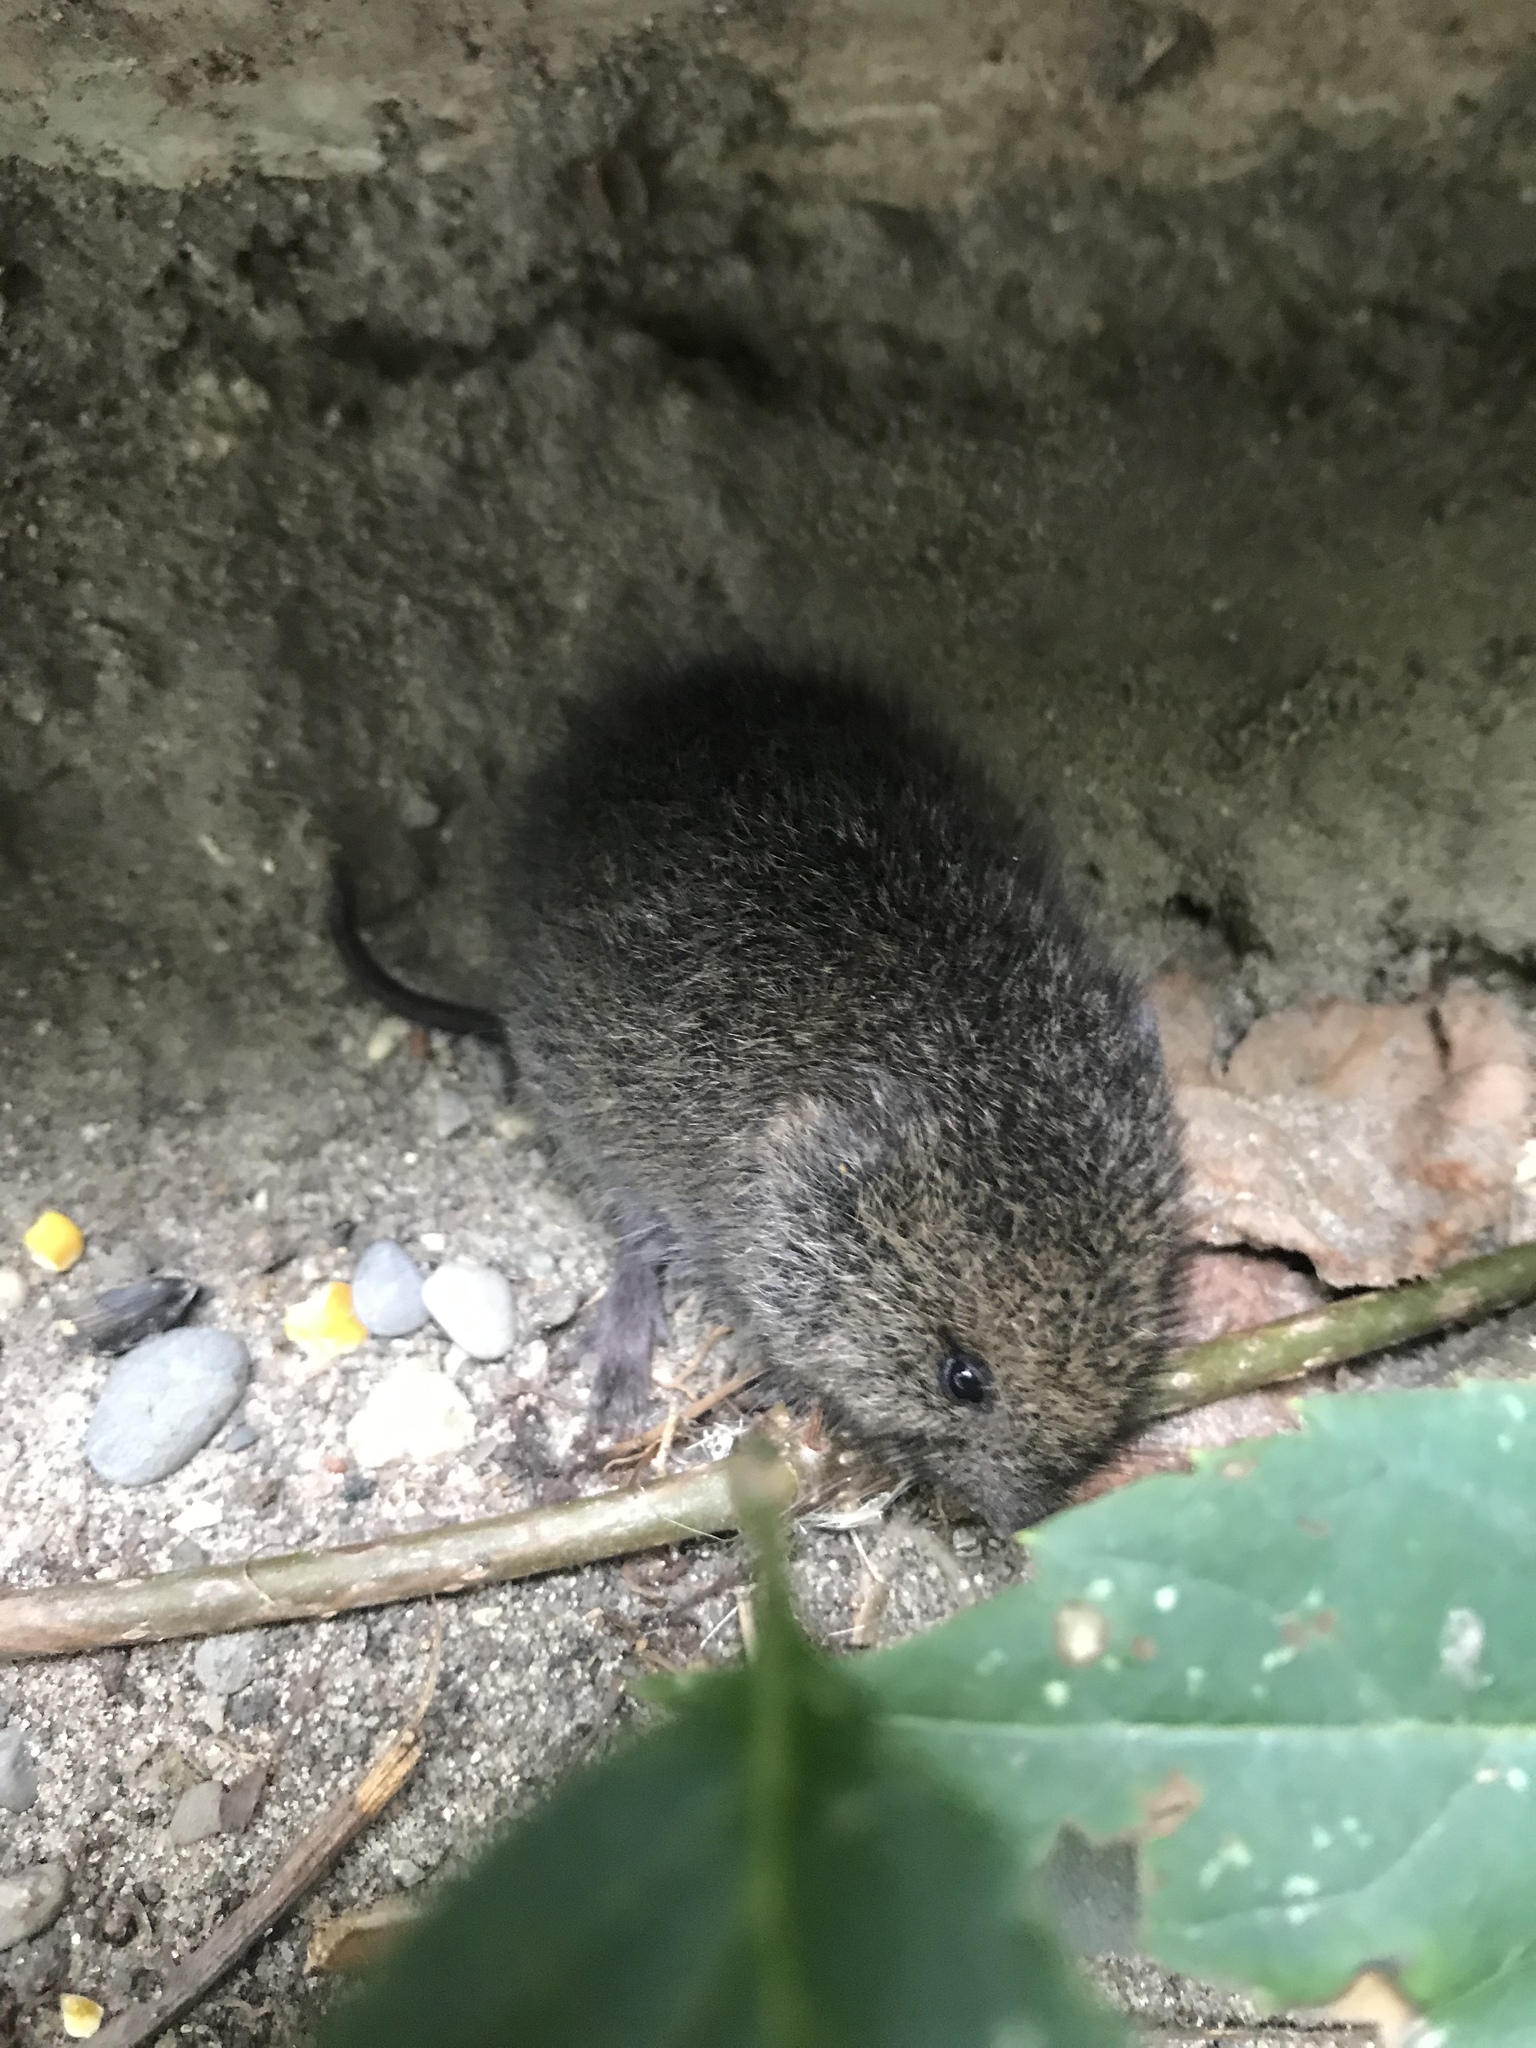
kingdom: Animalia
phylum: Chordata
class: Mammalia
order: Rodentia
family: Cricetidae
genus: Microtus
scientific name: Microtus pennsylvanicus
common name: Meadow vole
